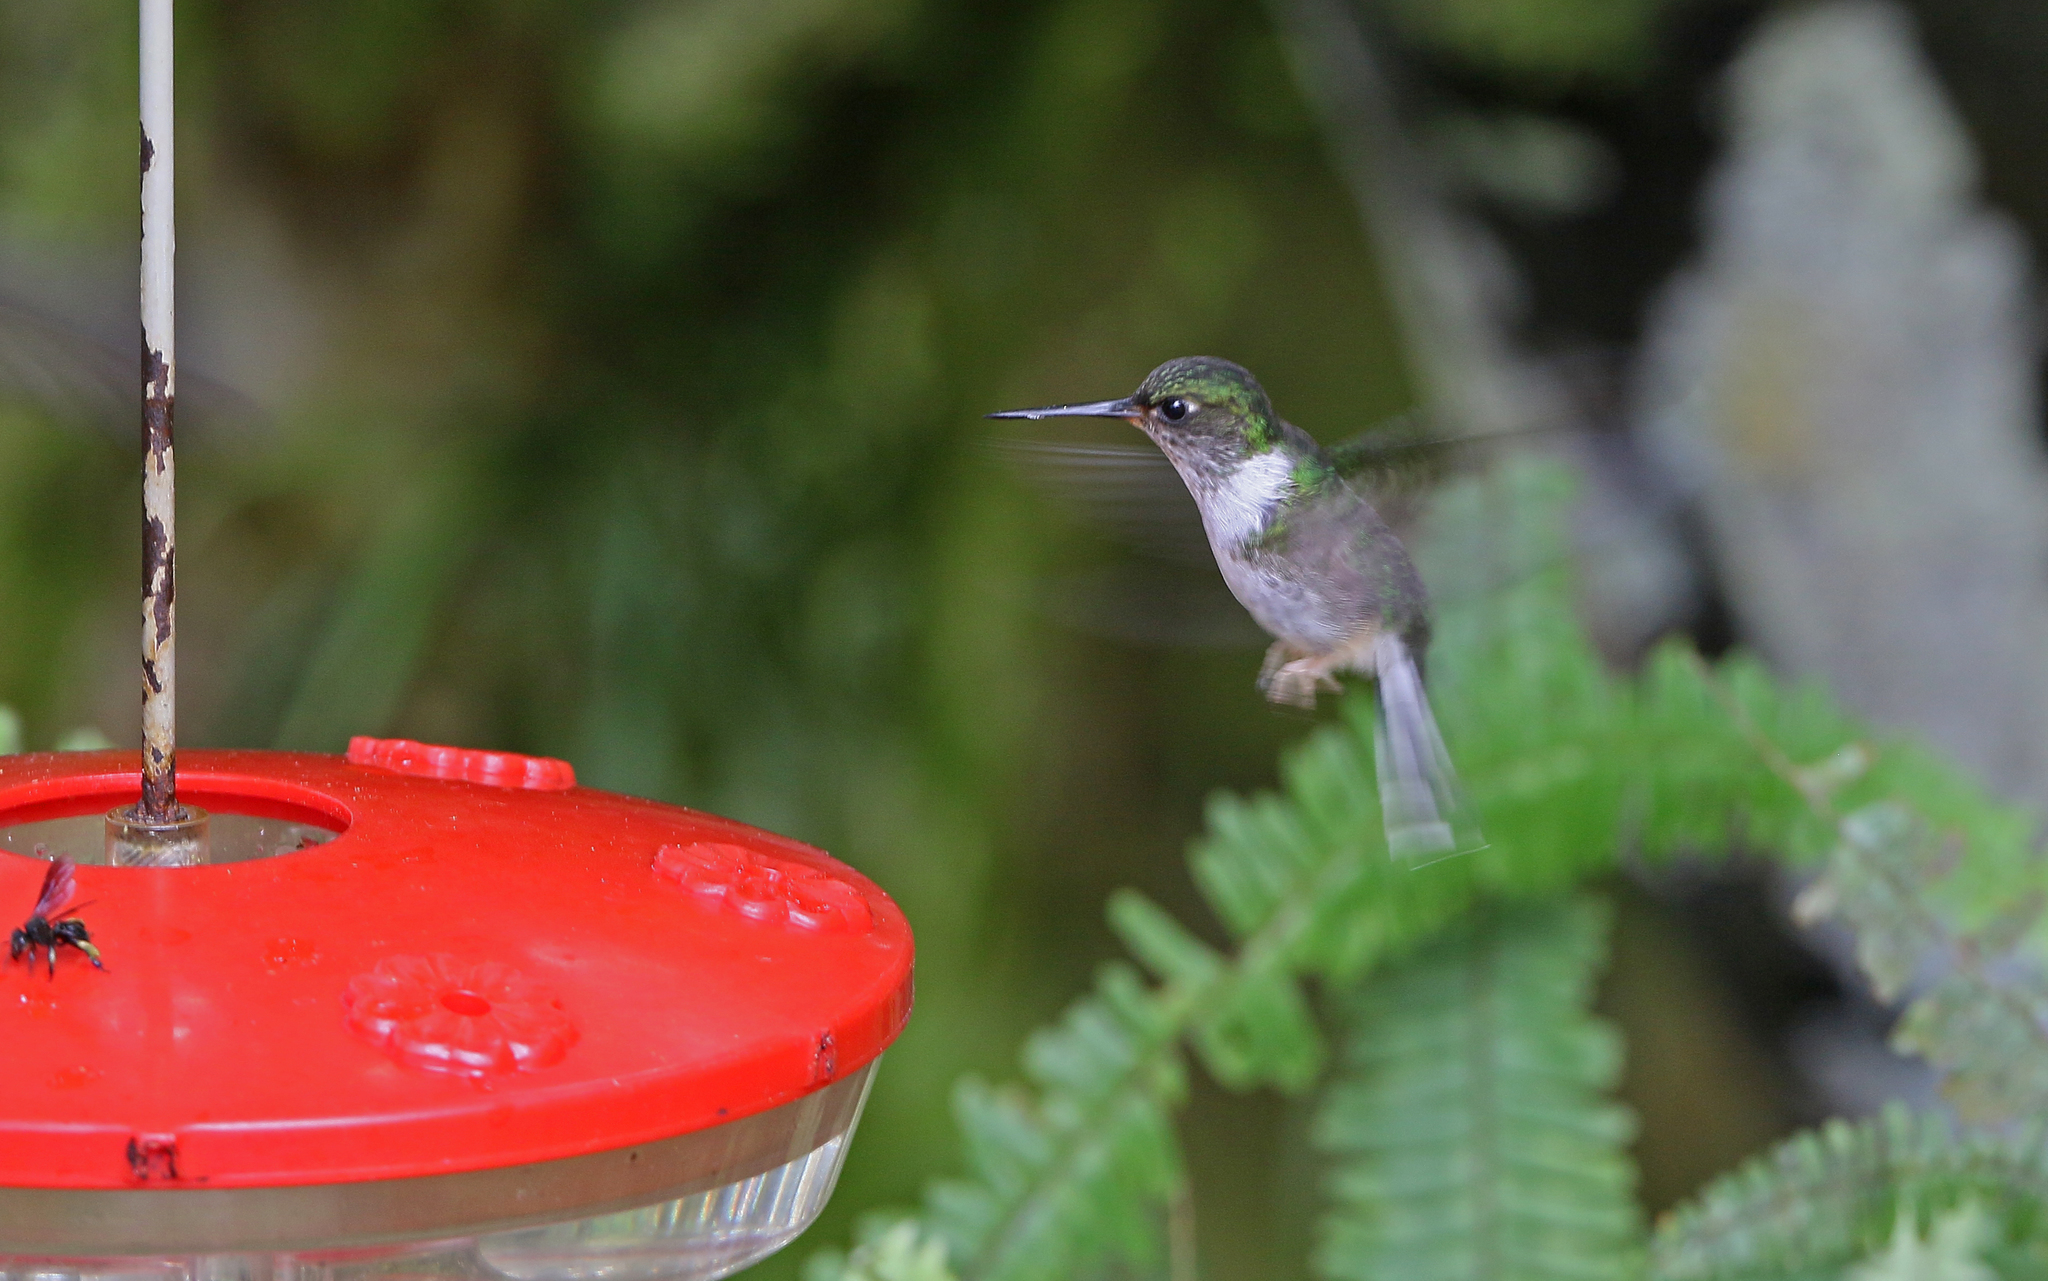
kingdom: Animalia
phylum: Chordata
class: Aves
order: Apodiformes
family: Trochilidae
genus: Phlogophilus
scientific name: Phlogophilus hemileucurus
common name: Ecuadorian piedtail
